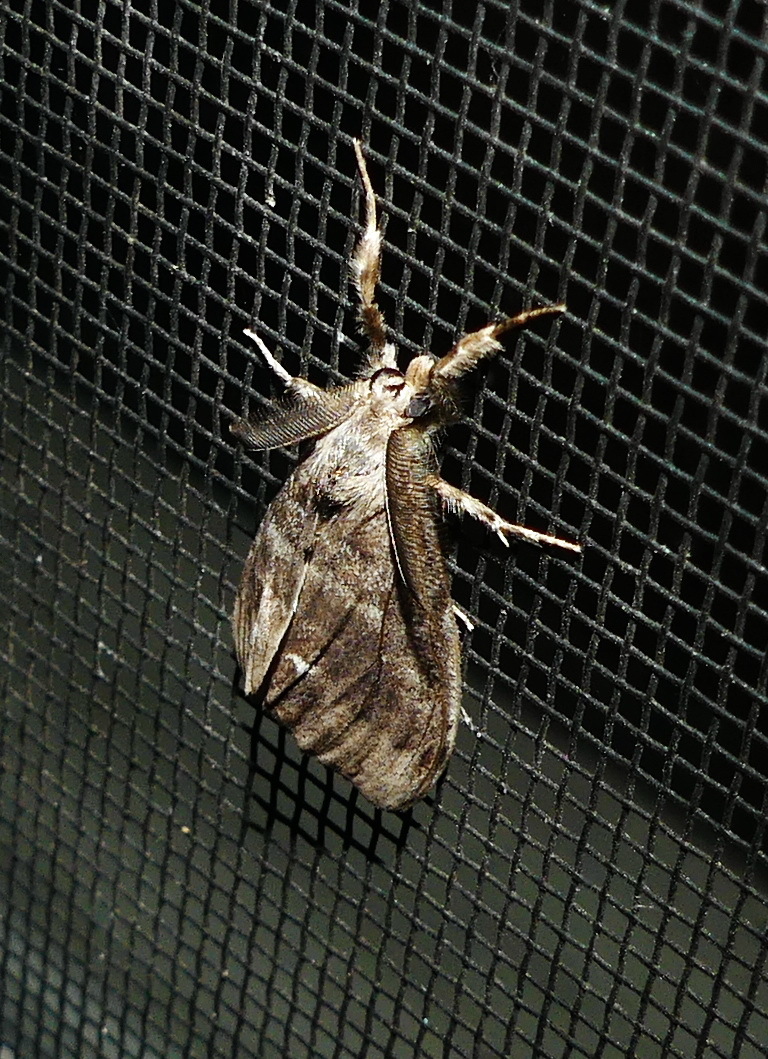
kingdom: Animalia
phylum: Arthropoda
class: Insecta
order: Lepidoptera
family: Erebidae
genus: Orgyia
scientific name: Orgyia leucostigma
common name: White-marked tussock moth
